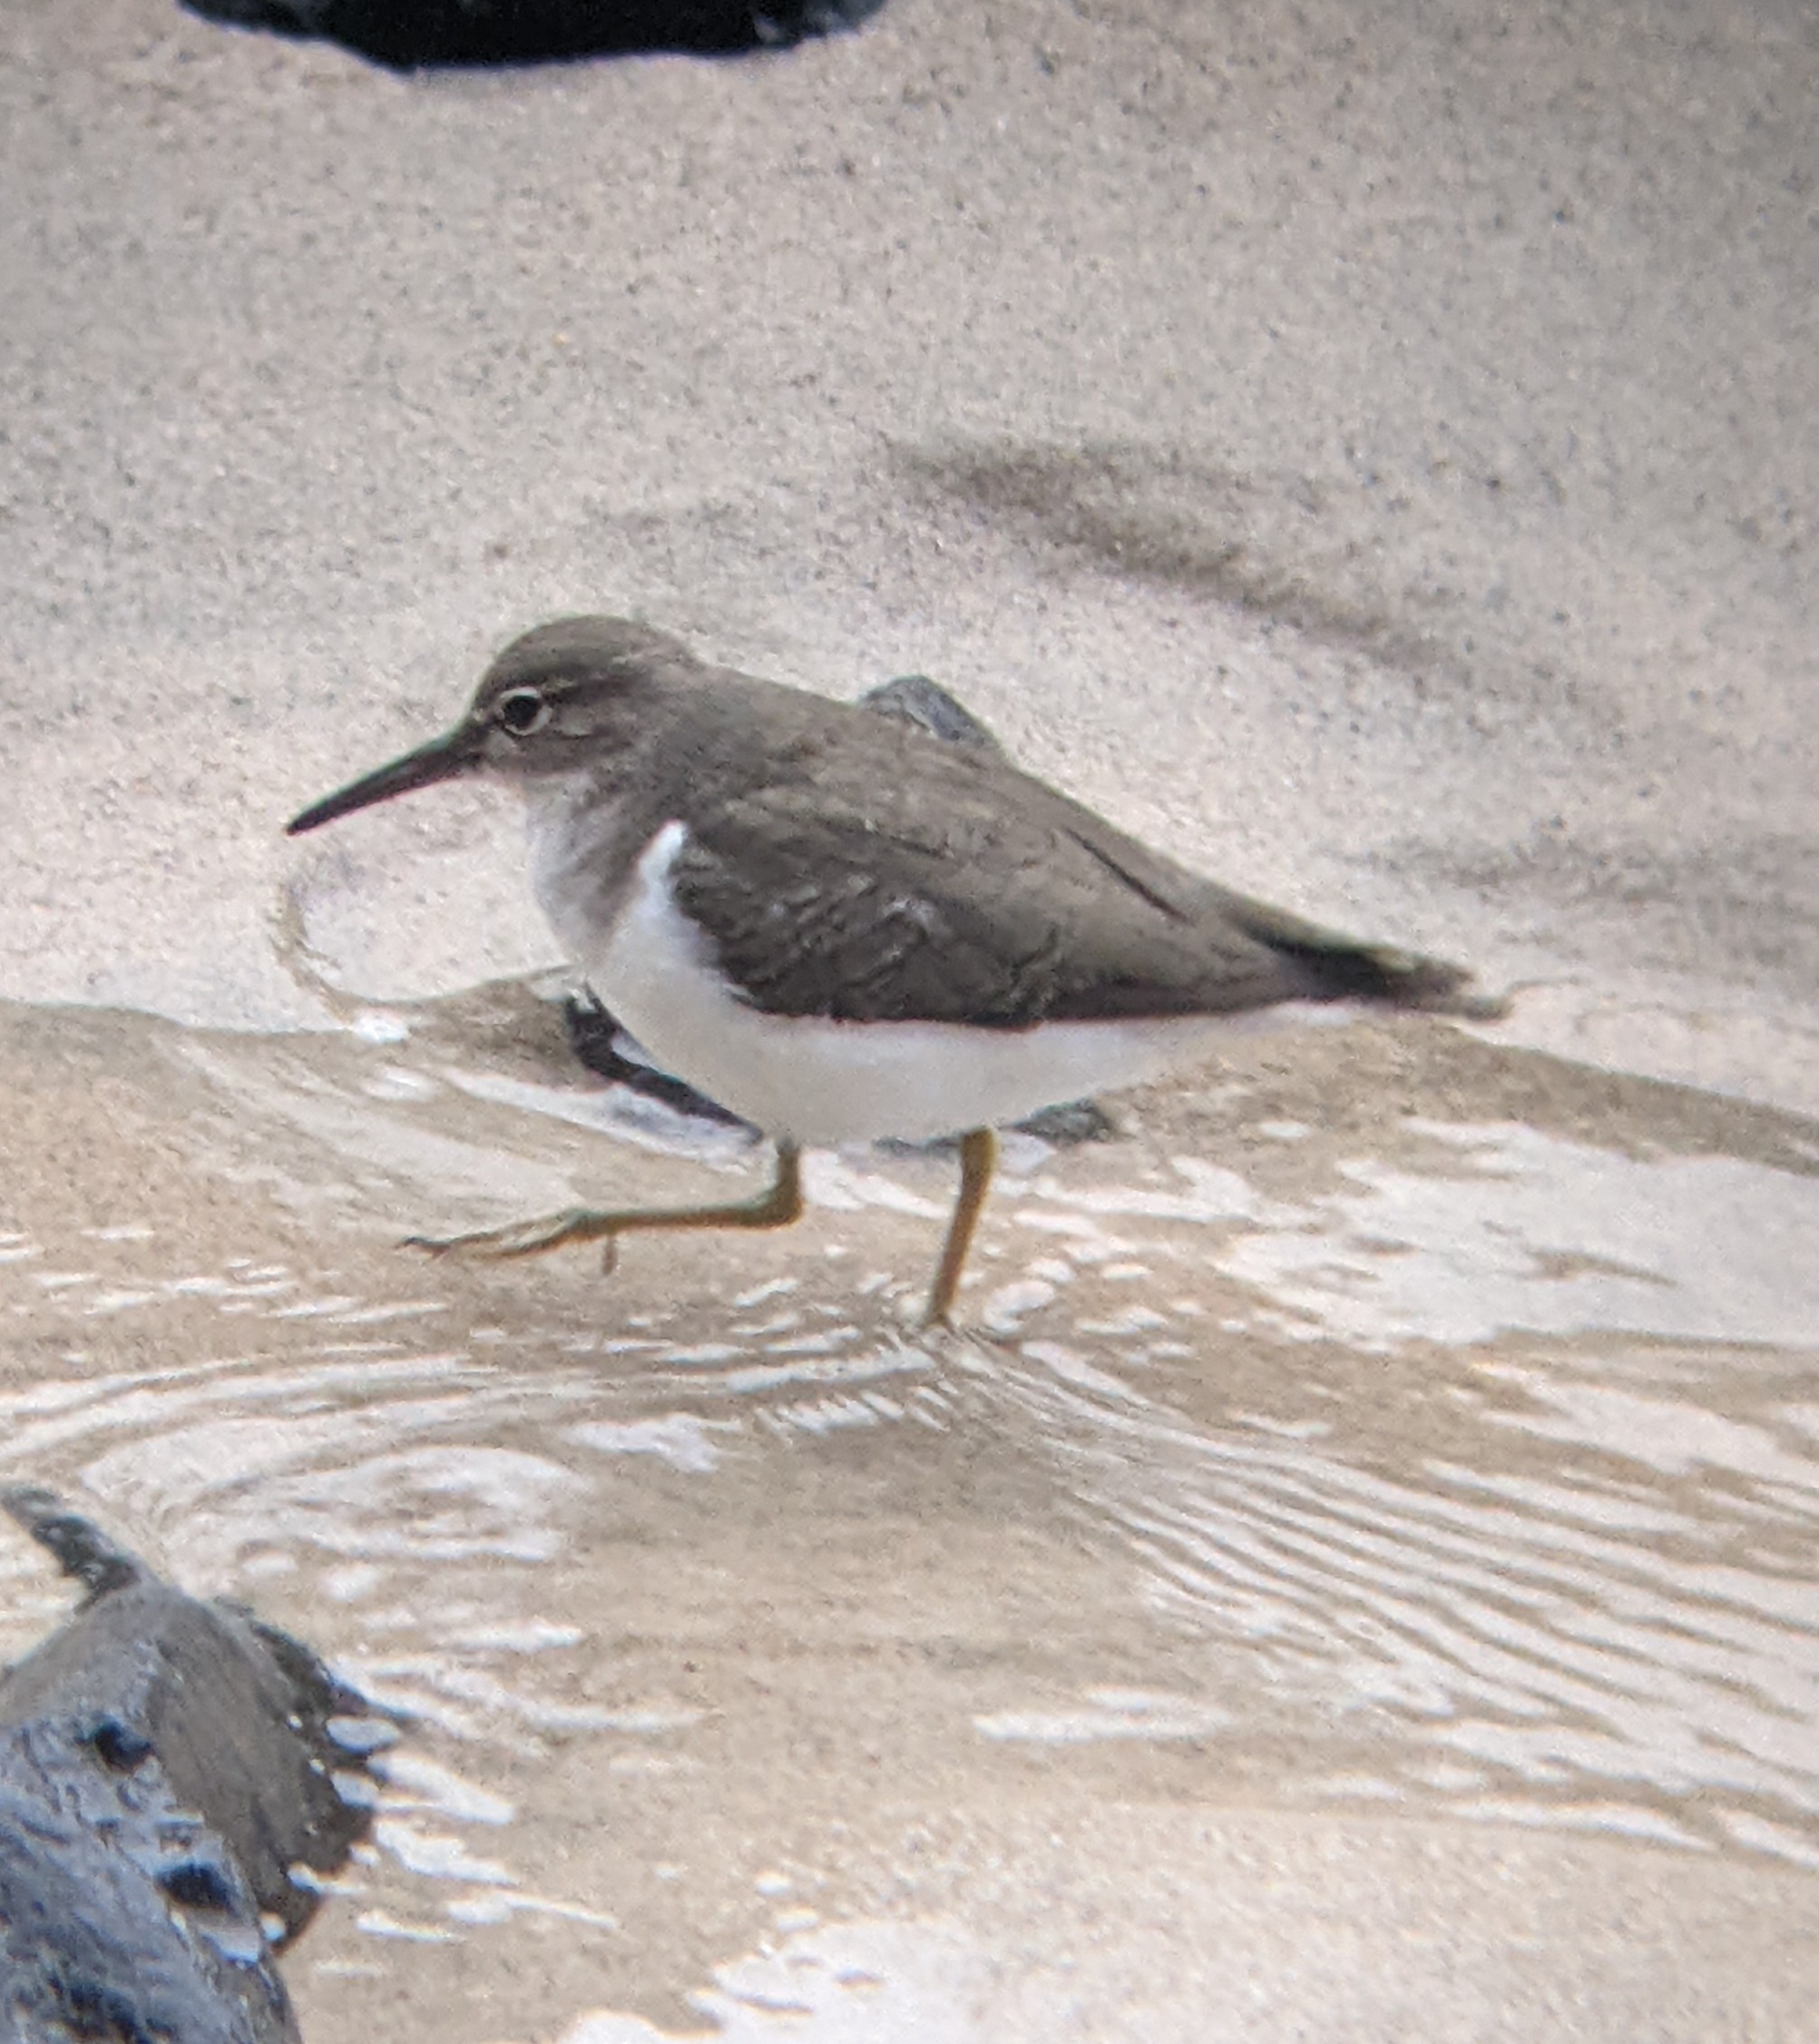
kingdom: Animalia
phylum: Chordata
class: Aves
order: Charadriiformes
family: Scolopacidae
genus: Actitis
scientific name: Actitis macularius
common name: Spotted sandpiper
